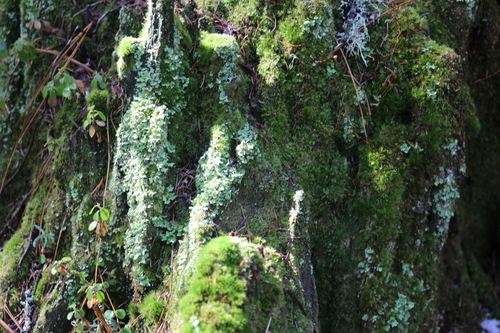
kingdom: Fungi
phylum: Ascomycota
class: Lecanoromycetes
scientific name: Lecanoromycetes
